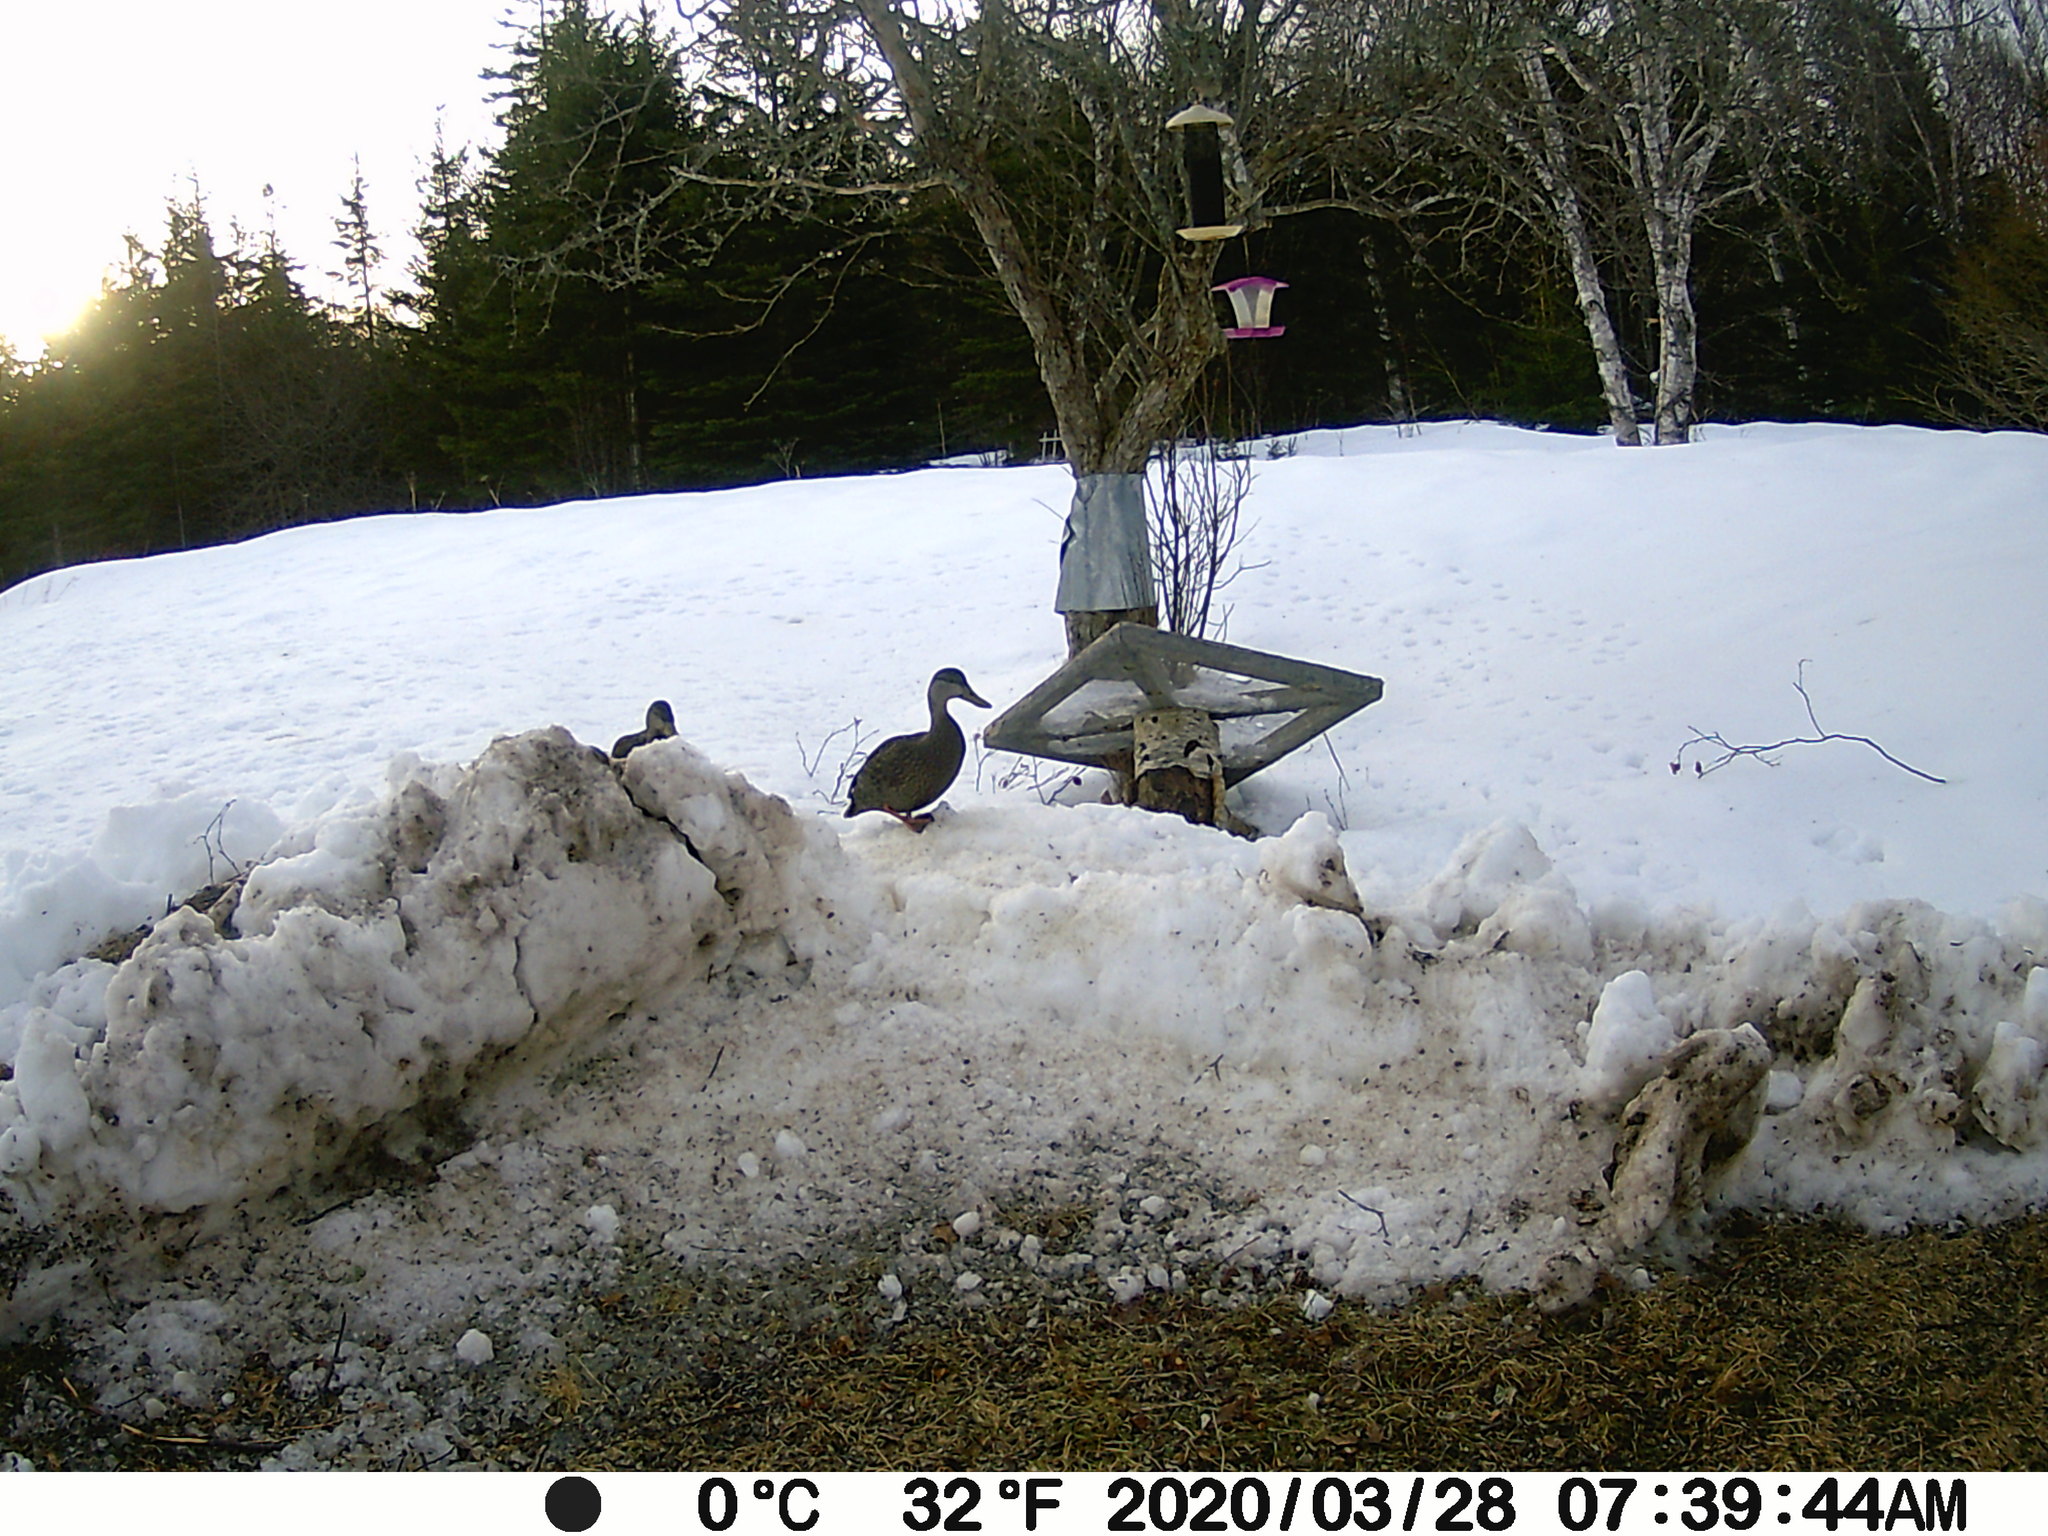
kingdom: Animalia
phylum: Chordata
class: Aves
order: Anseriformes
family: Anatidae
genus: Anas
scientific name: Anas rubripes
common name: American black duck
